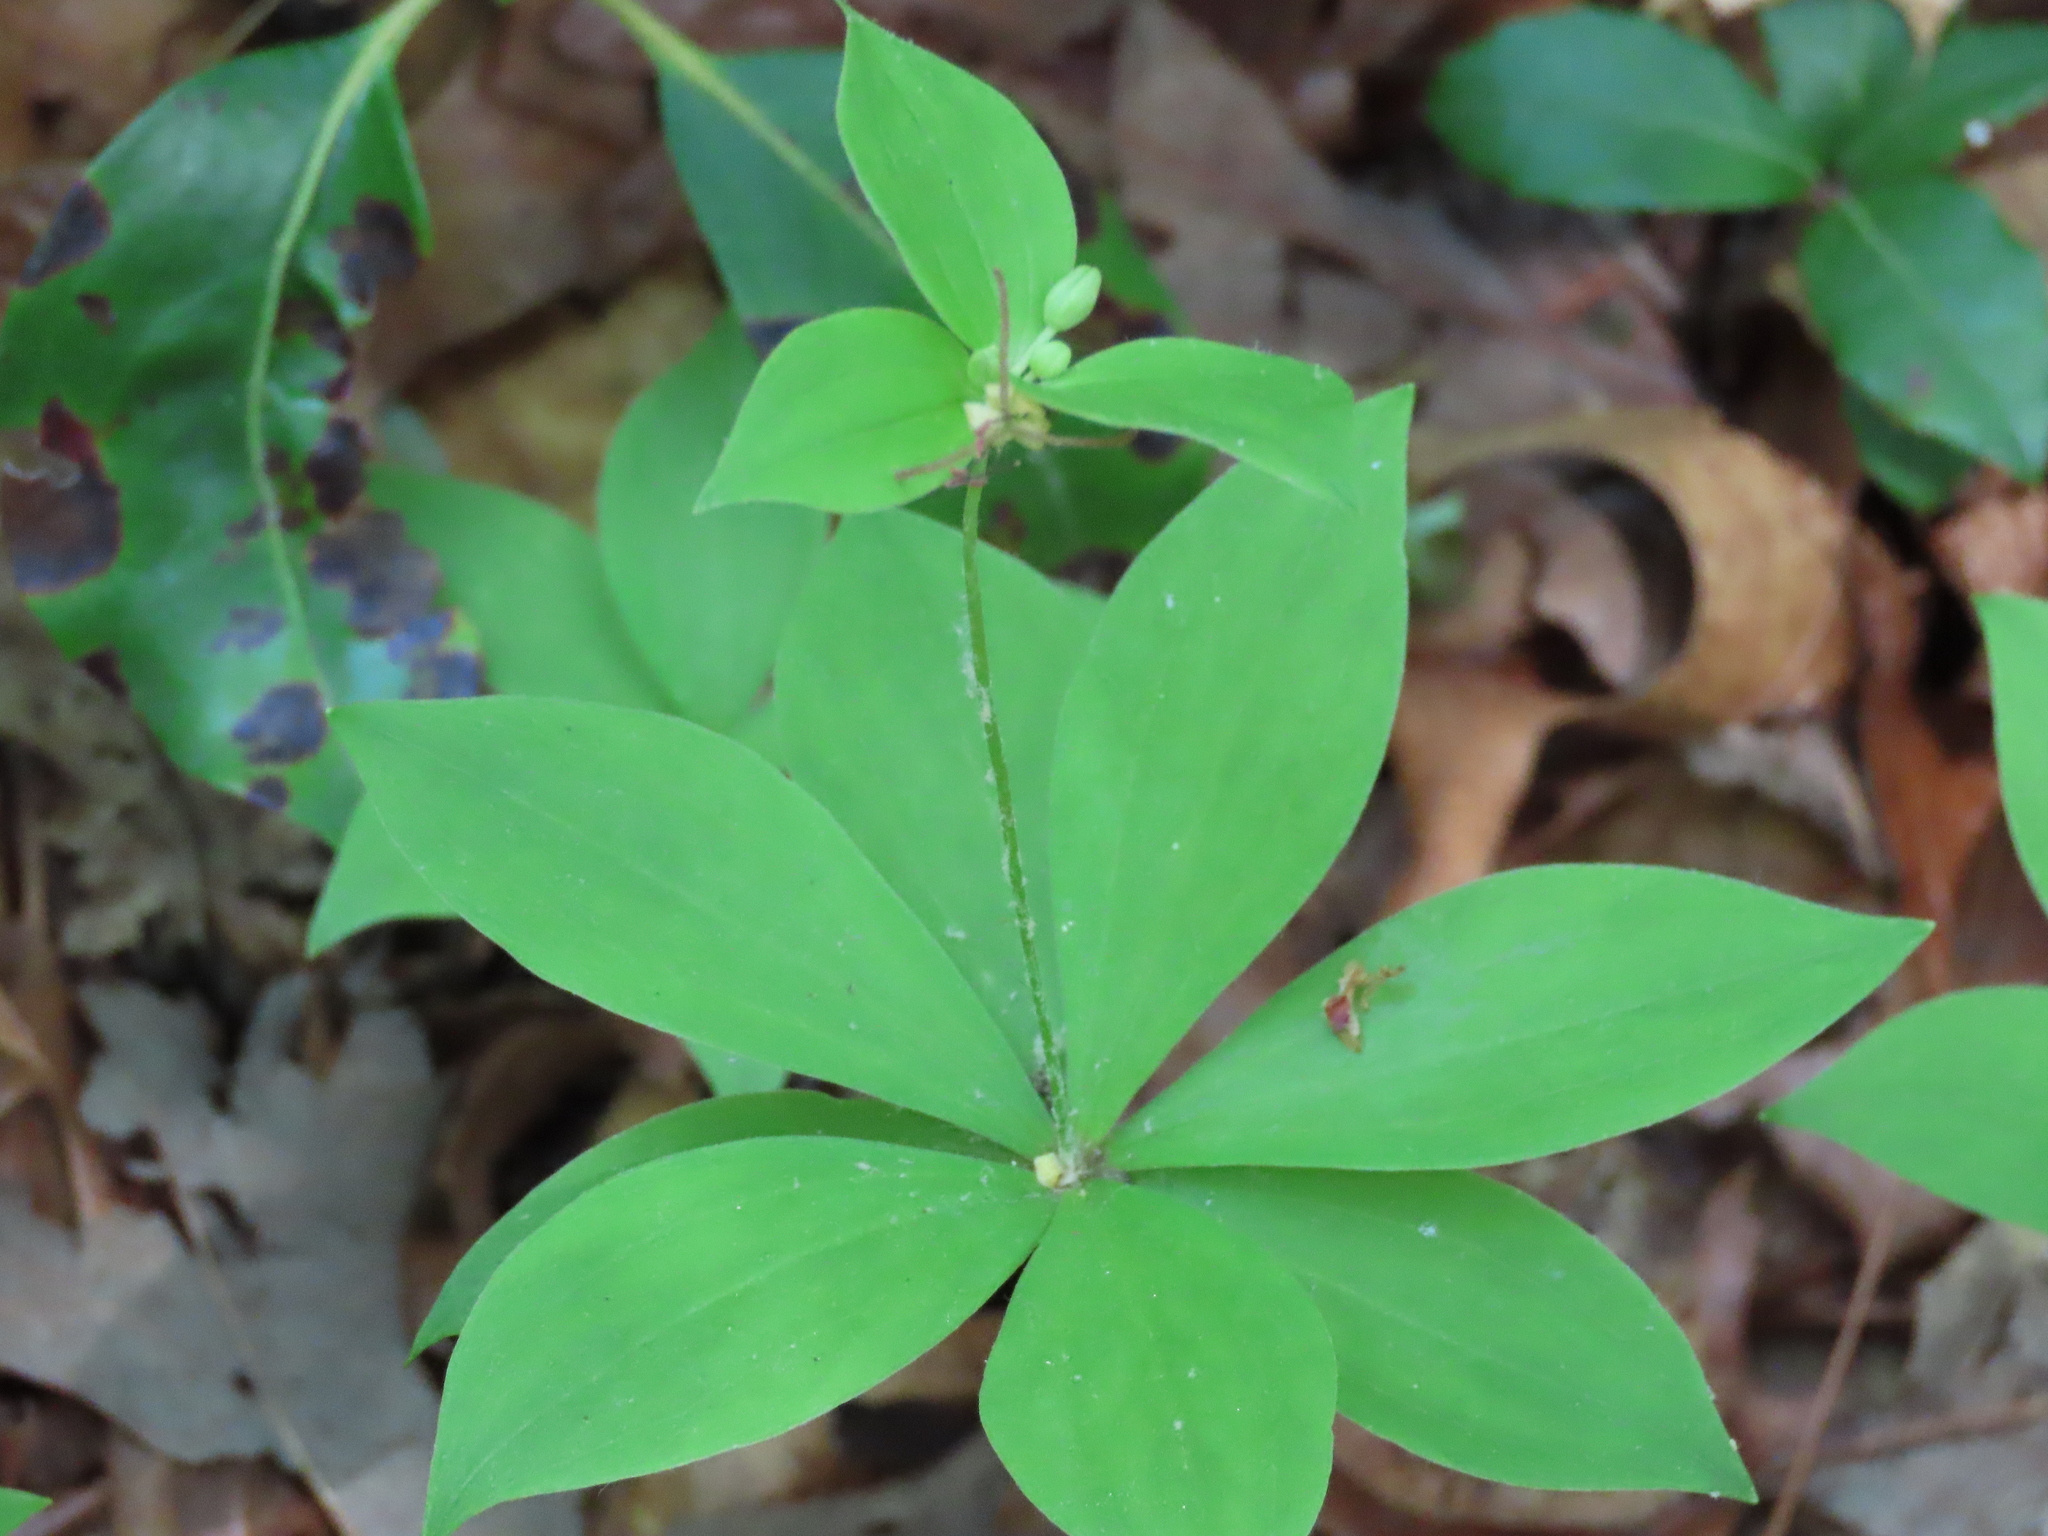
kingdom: Plantae
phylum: Tracheophyta
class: Liliopsida
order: Liliales
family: Liliaceae
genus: Medeola
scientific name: Medeola virginiana
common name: Indian cucumber-root
